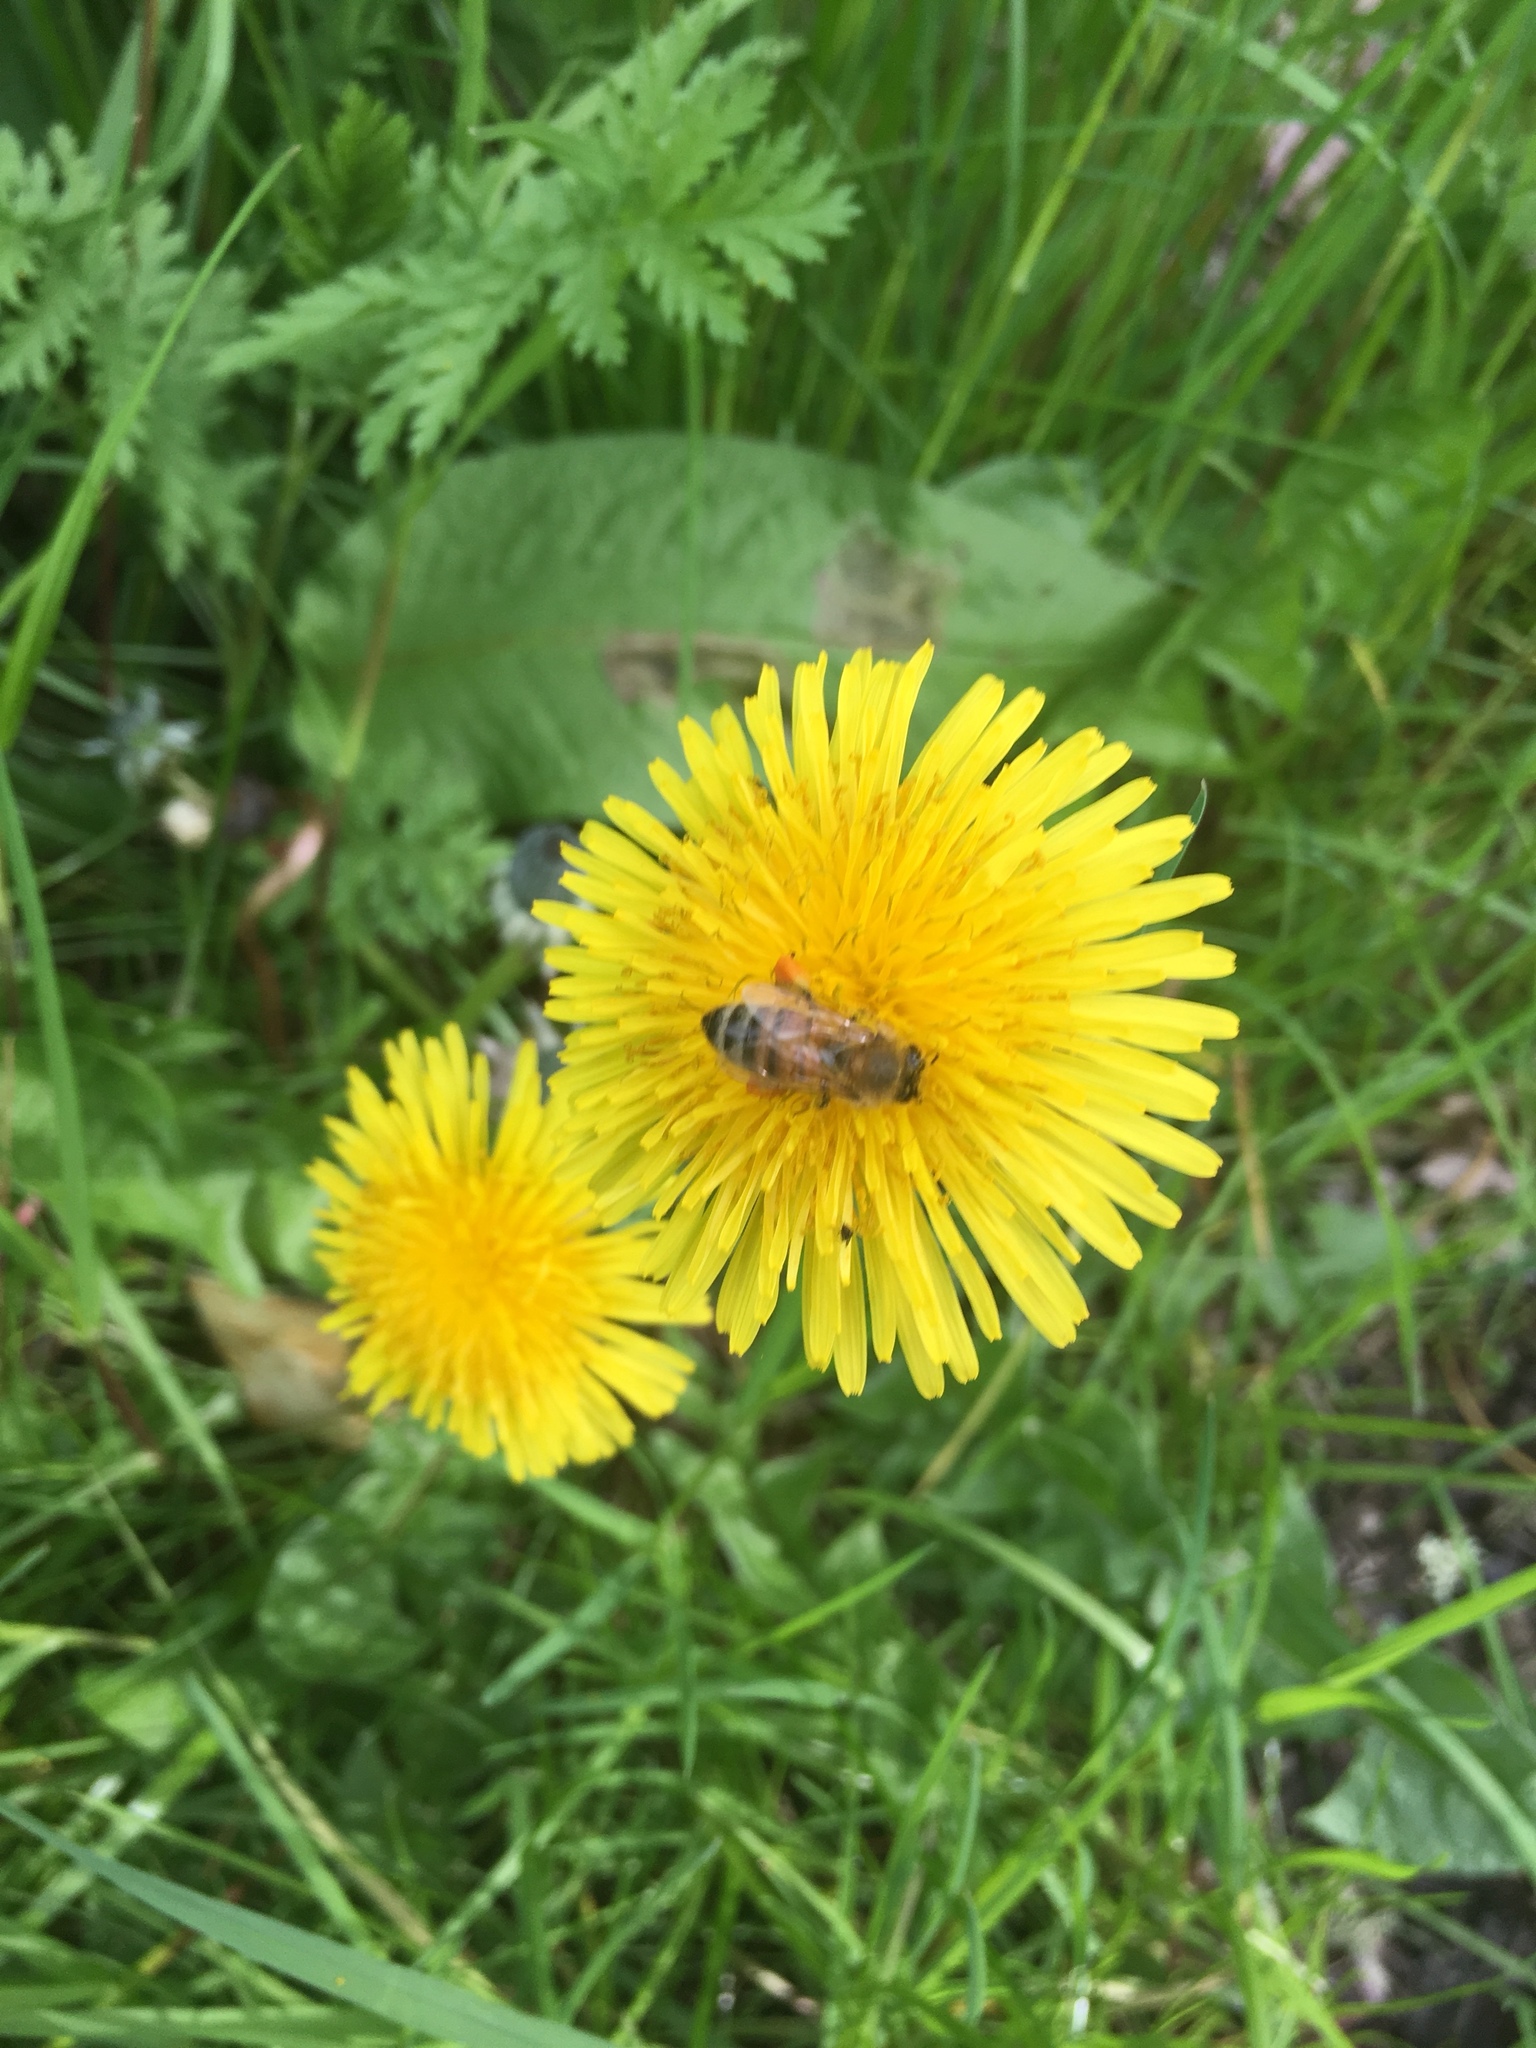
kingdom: Plantae
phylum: Tracheophyta
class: Magnoliopsida
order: Asterales
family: Asteraceae
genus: Taraxacum
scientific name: Taraxacum officinale
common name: Common dandelion
